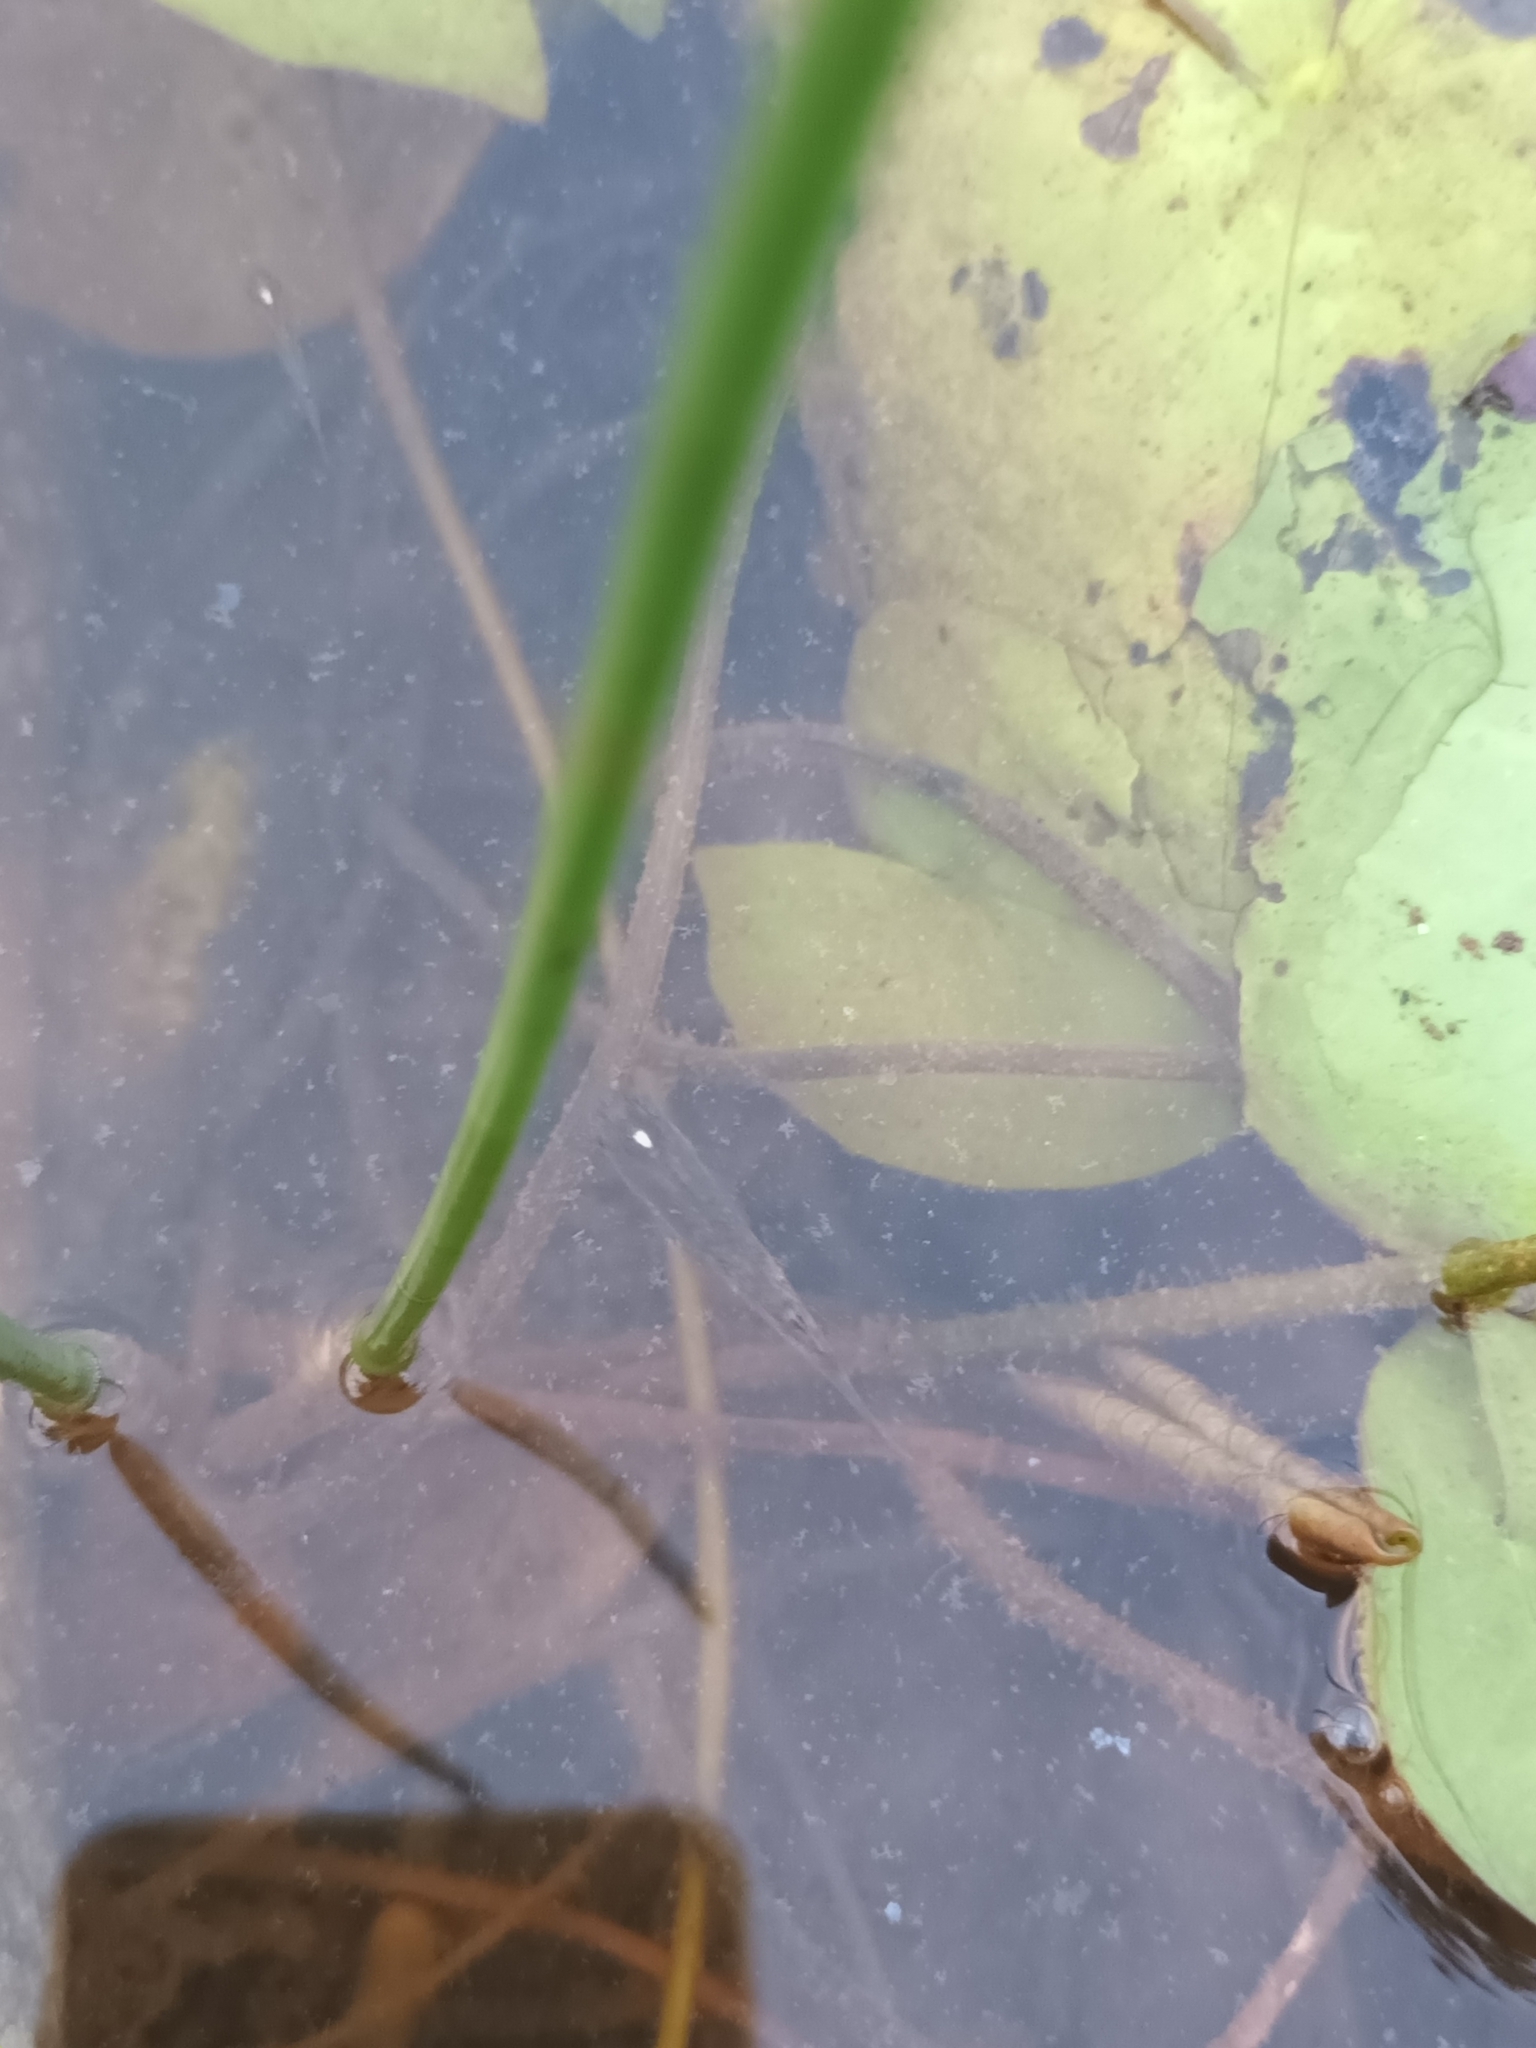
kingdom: Animalia
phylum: Chordata
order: Cyprinodontiformes
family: Aplocheilidae
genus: Aplocheilus
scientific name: Aplocheilus panchax
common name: Blue panchax
